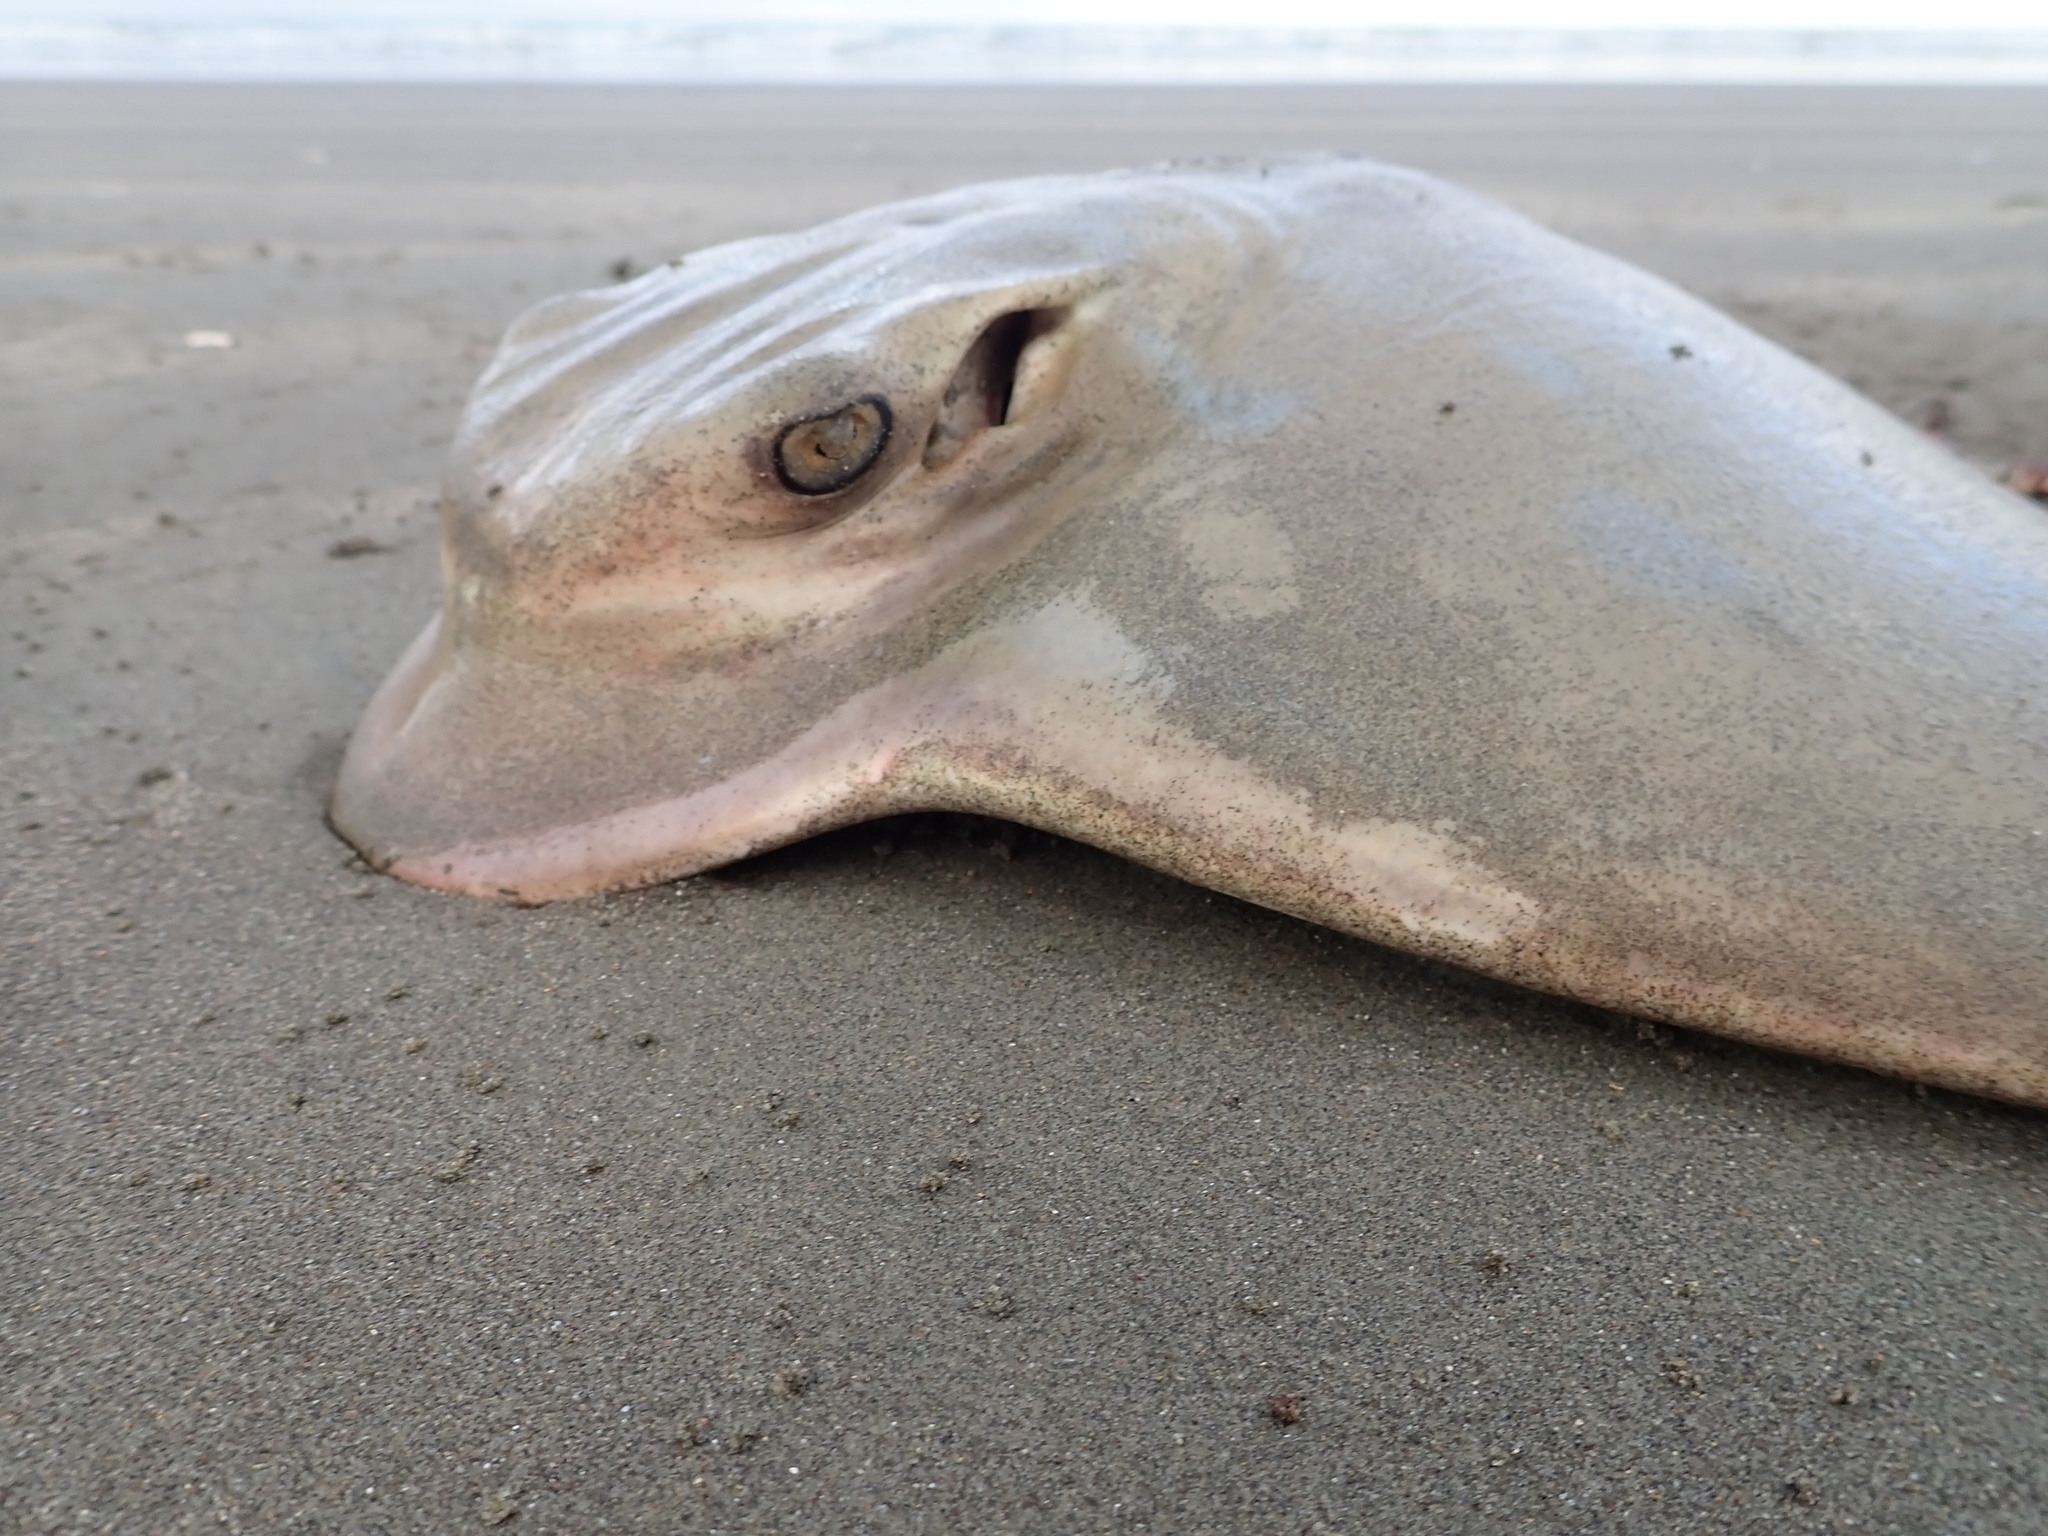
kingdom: Animalia
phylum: Chordata
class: Elasmobranchii
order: Myliobatiformes
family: Myliobatidae
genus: Myliobatis
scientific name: Myliobatis tenuicaudatus
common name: Eagle ray
